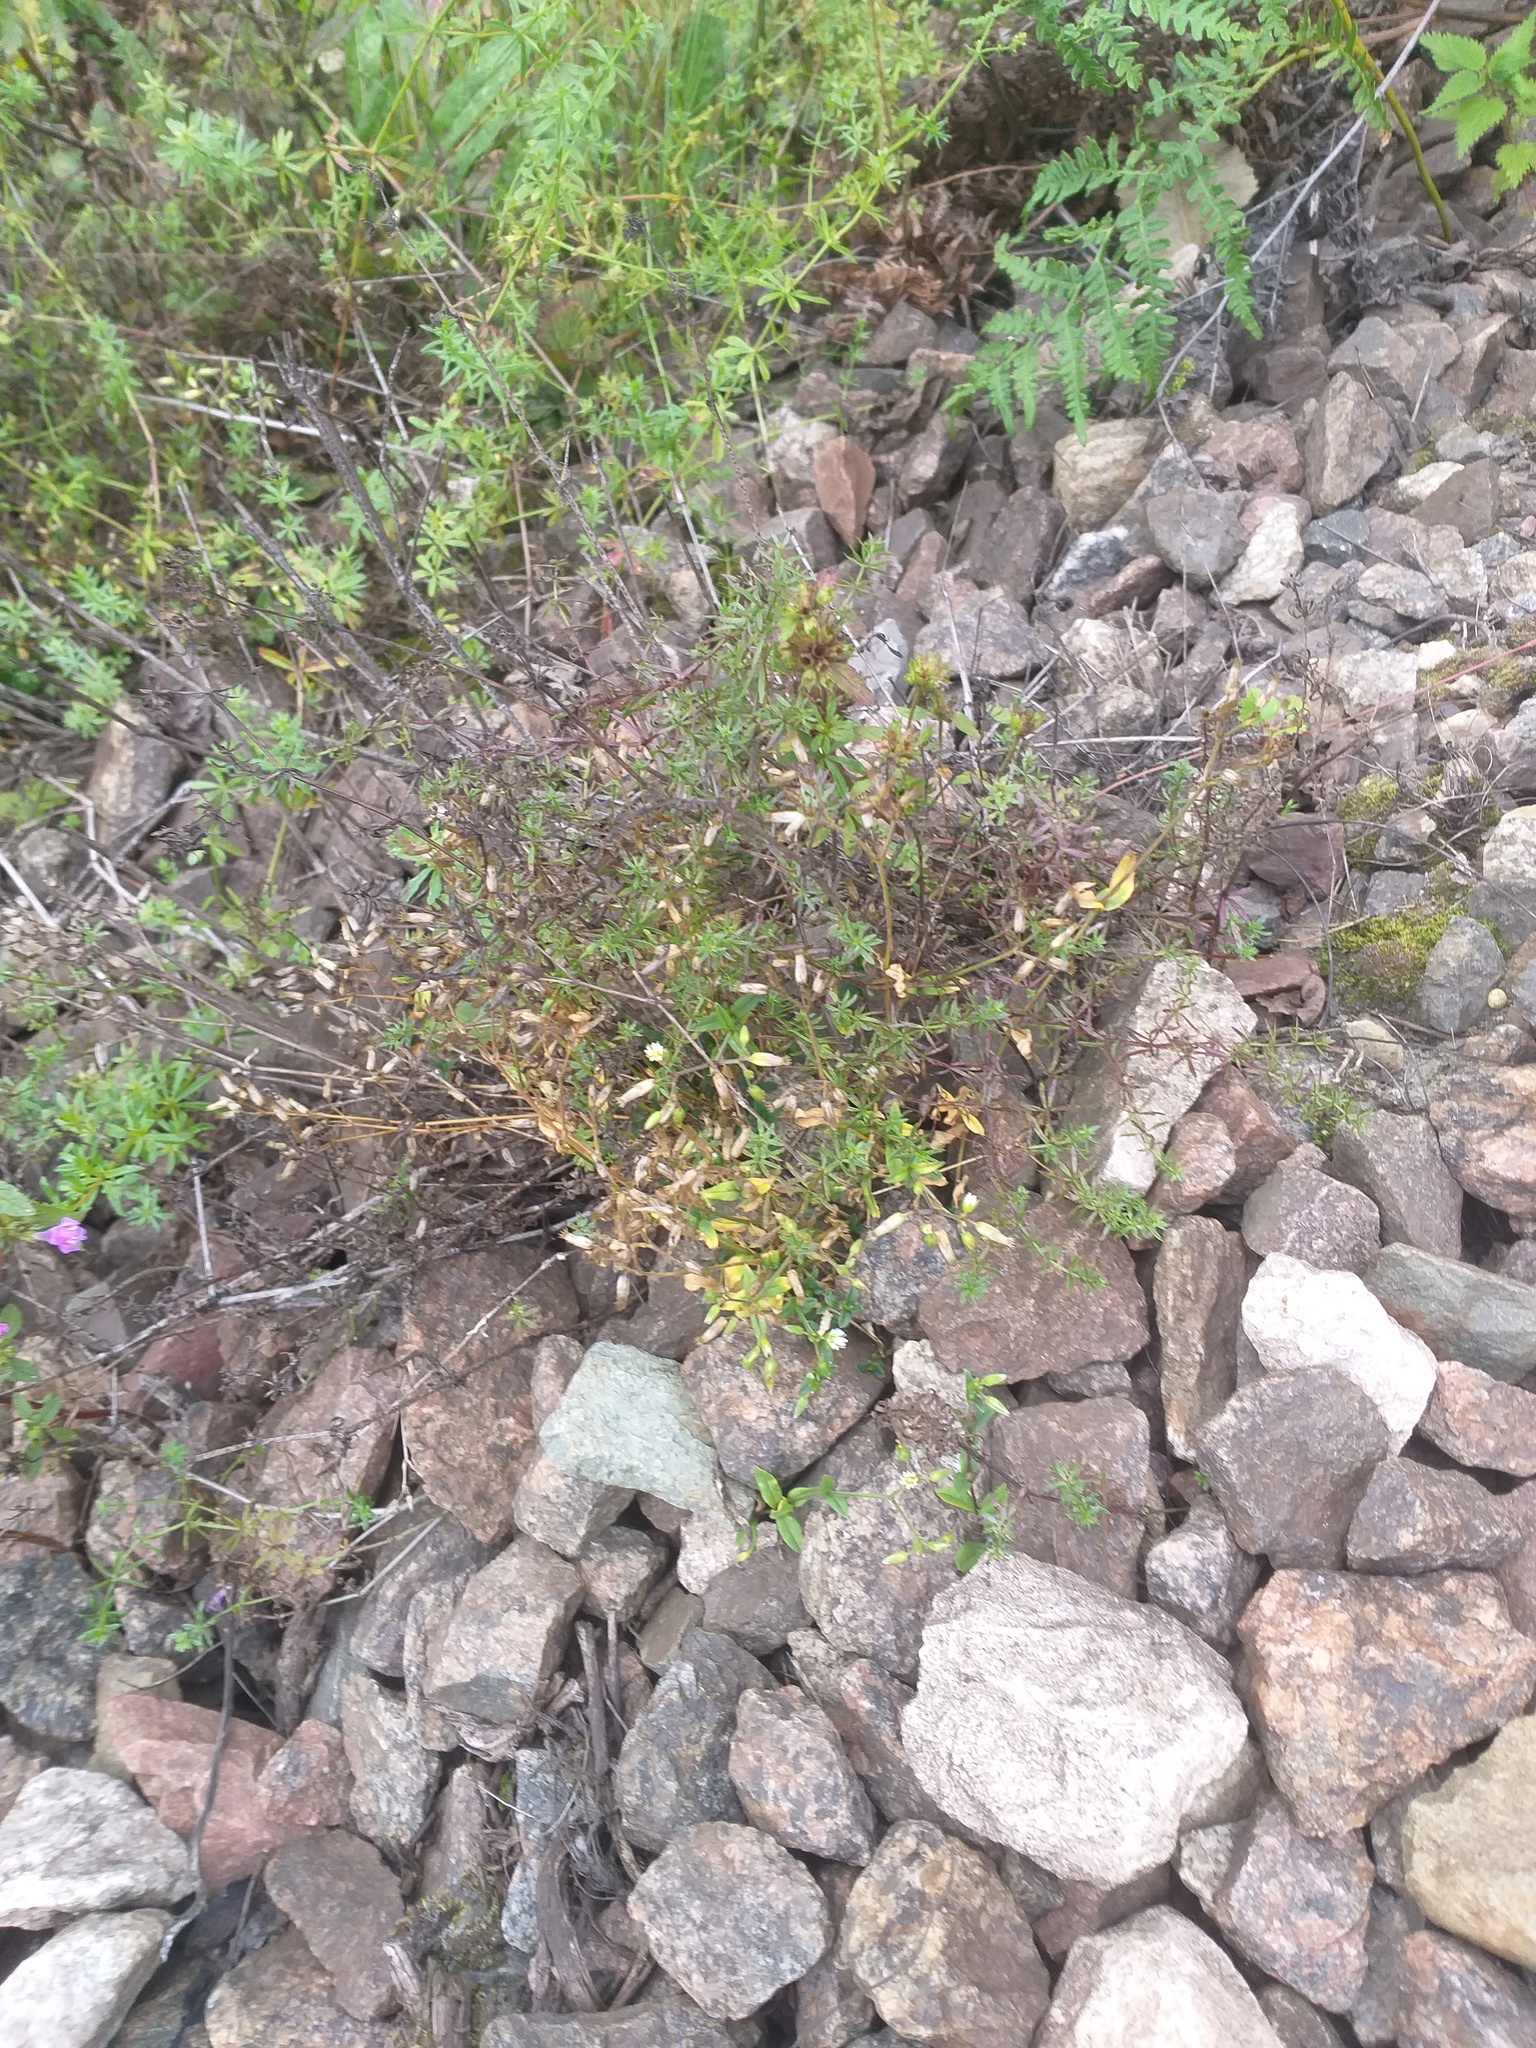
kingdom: Plantae
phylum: Tracheophyta
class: Magnoliopsida
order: Caryophyllales
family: Caryophyllaceae
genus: Cerastium
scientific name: Cerastium holosteoides
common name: Big chickweed
